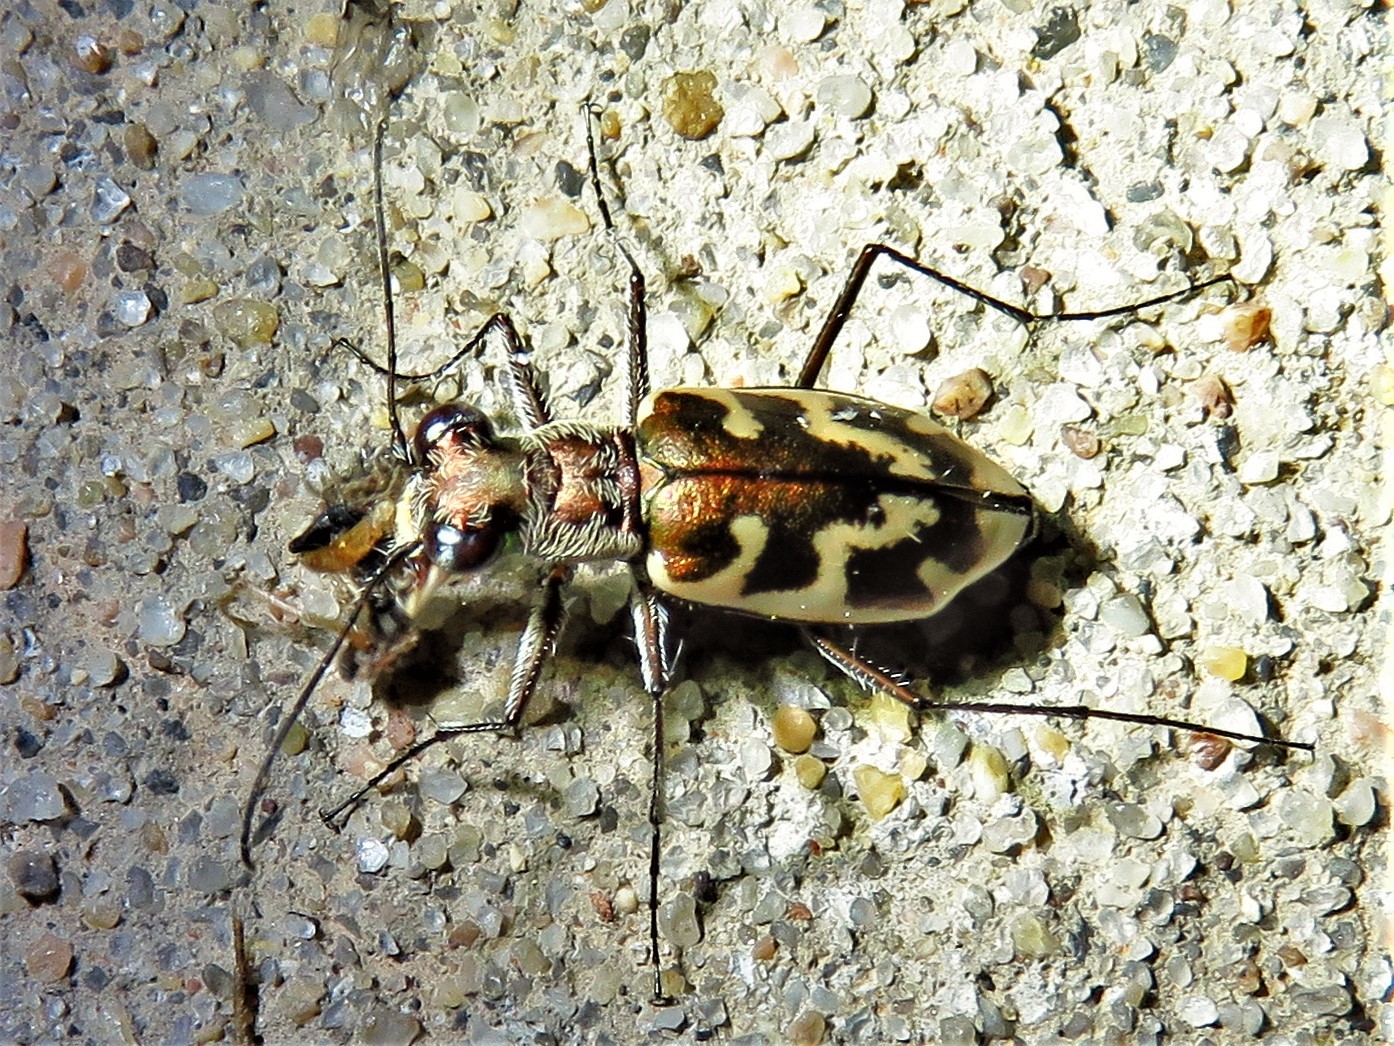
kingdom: Animalia
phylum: Arthropoda
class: Insecta
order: Coleoptera
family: Carabidae
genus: Ellipsoptera
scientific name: Ellipsoptera nevadica
